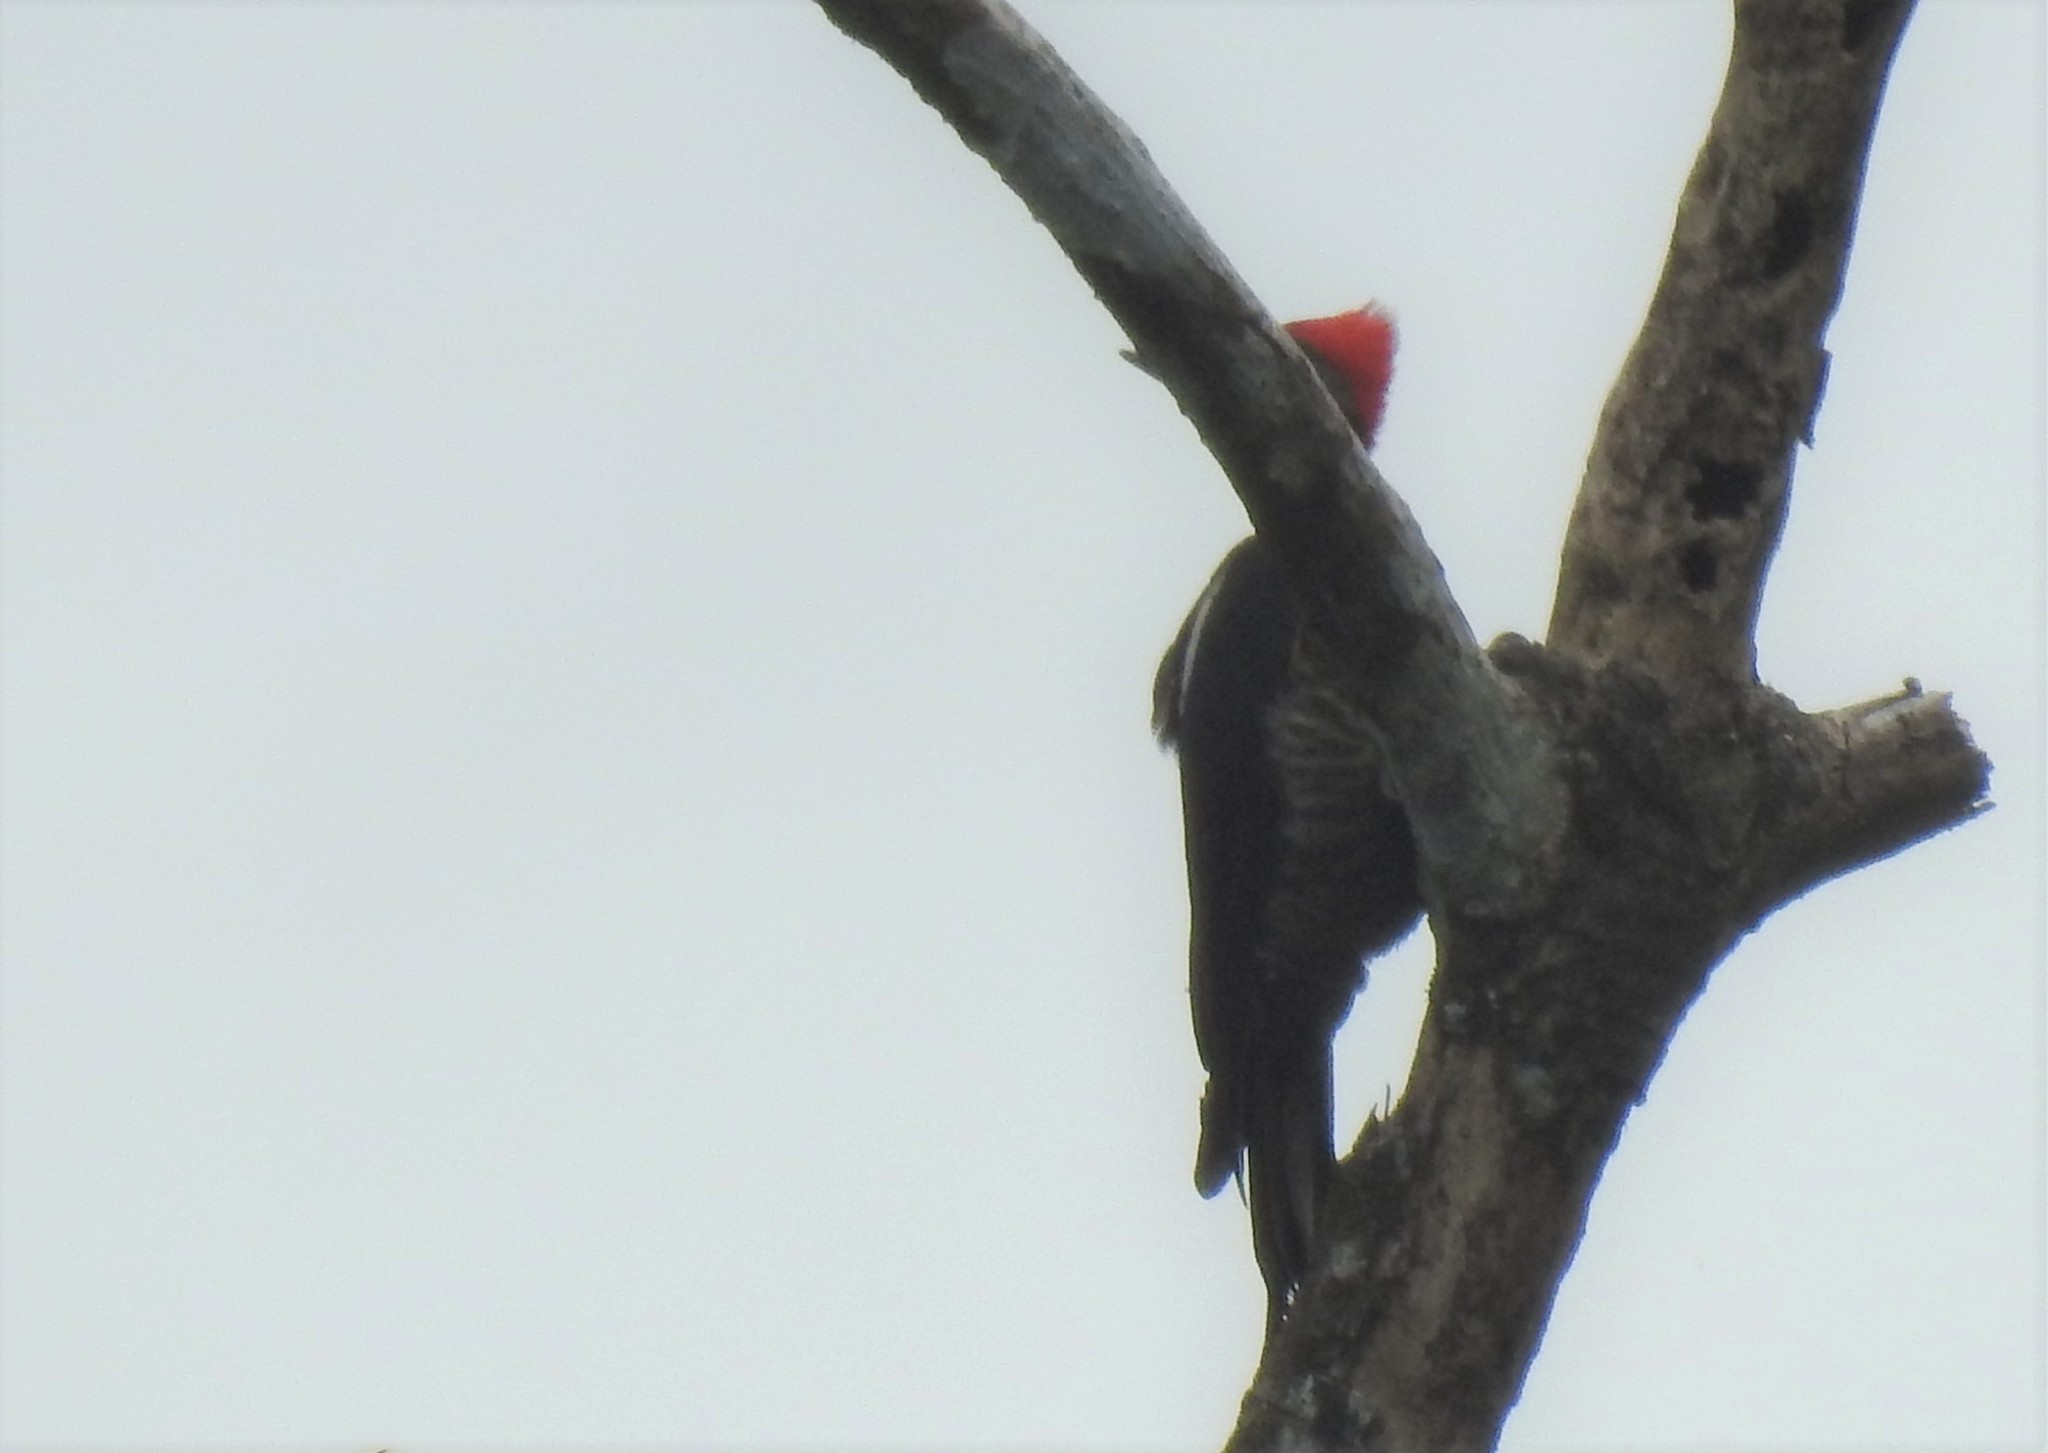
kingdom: Animalia
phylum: Chordata
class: Aves
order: Piciformes
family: Picidae
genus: Dryocopus
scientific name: Dryocopus lineatus
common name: Lineated woodpecker
